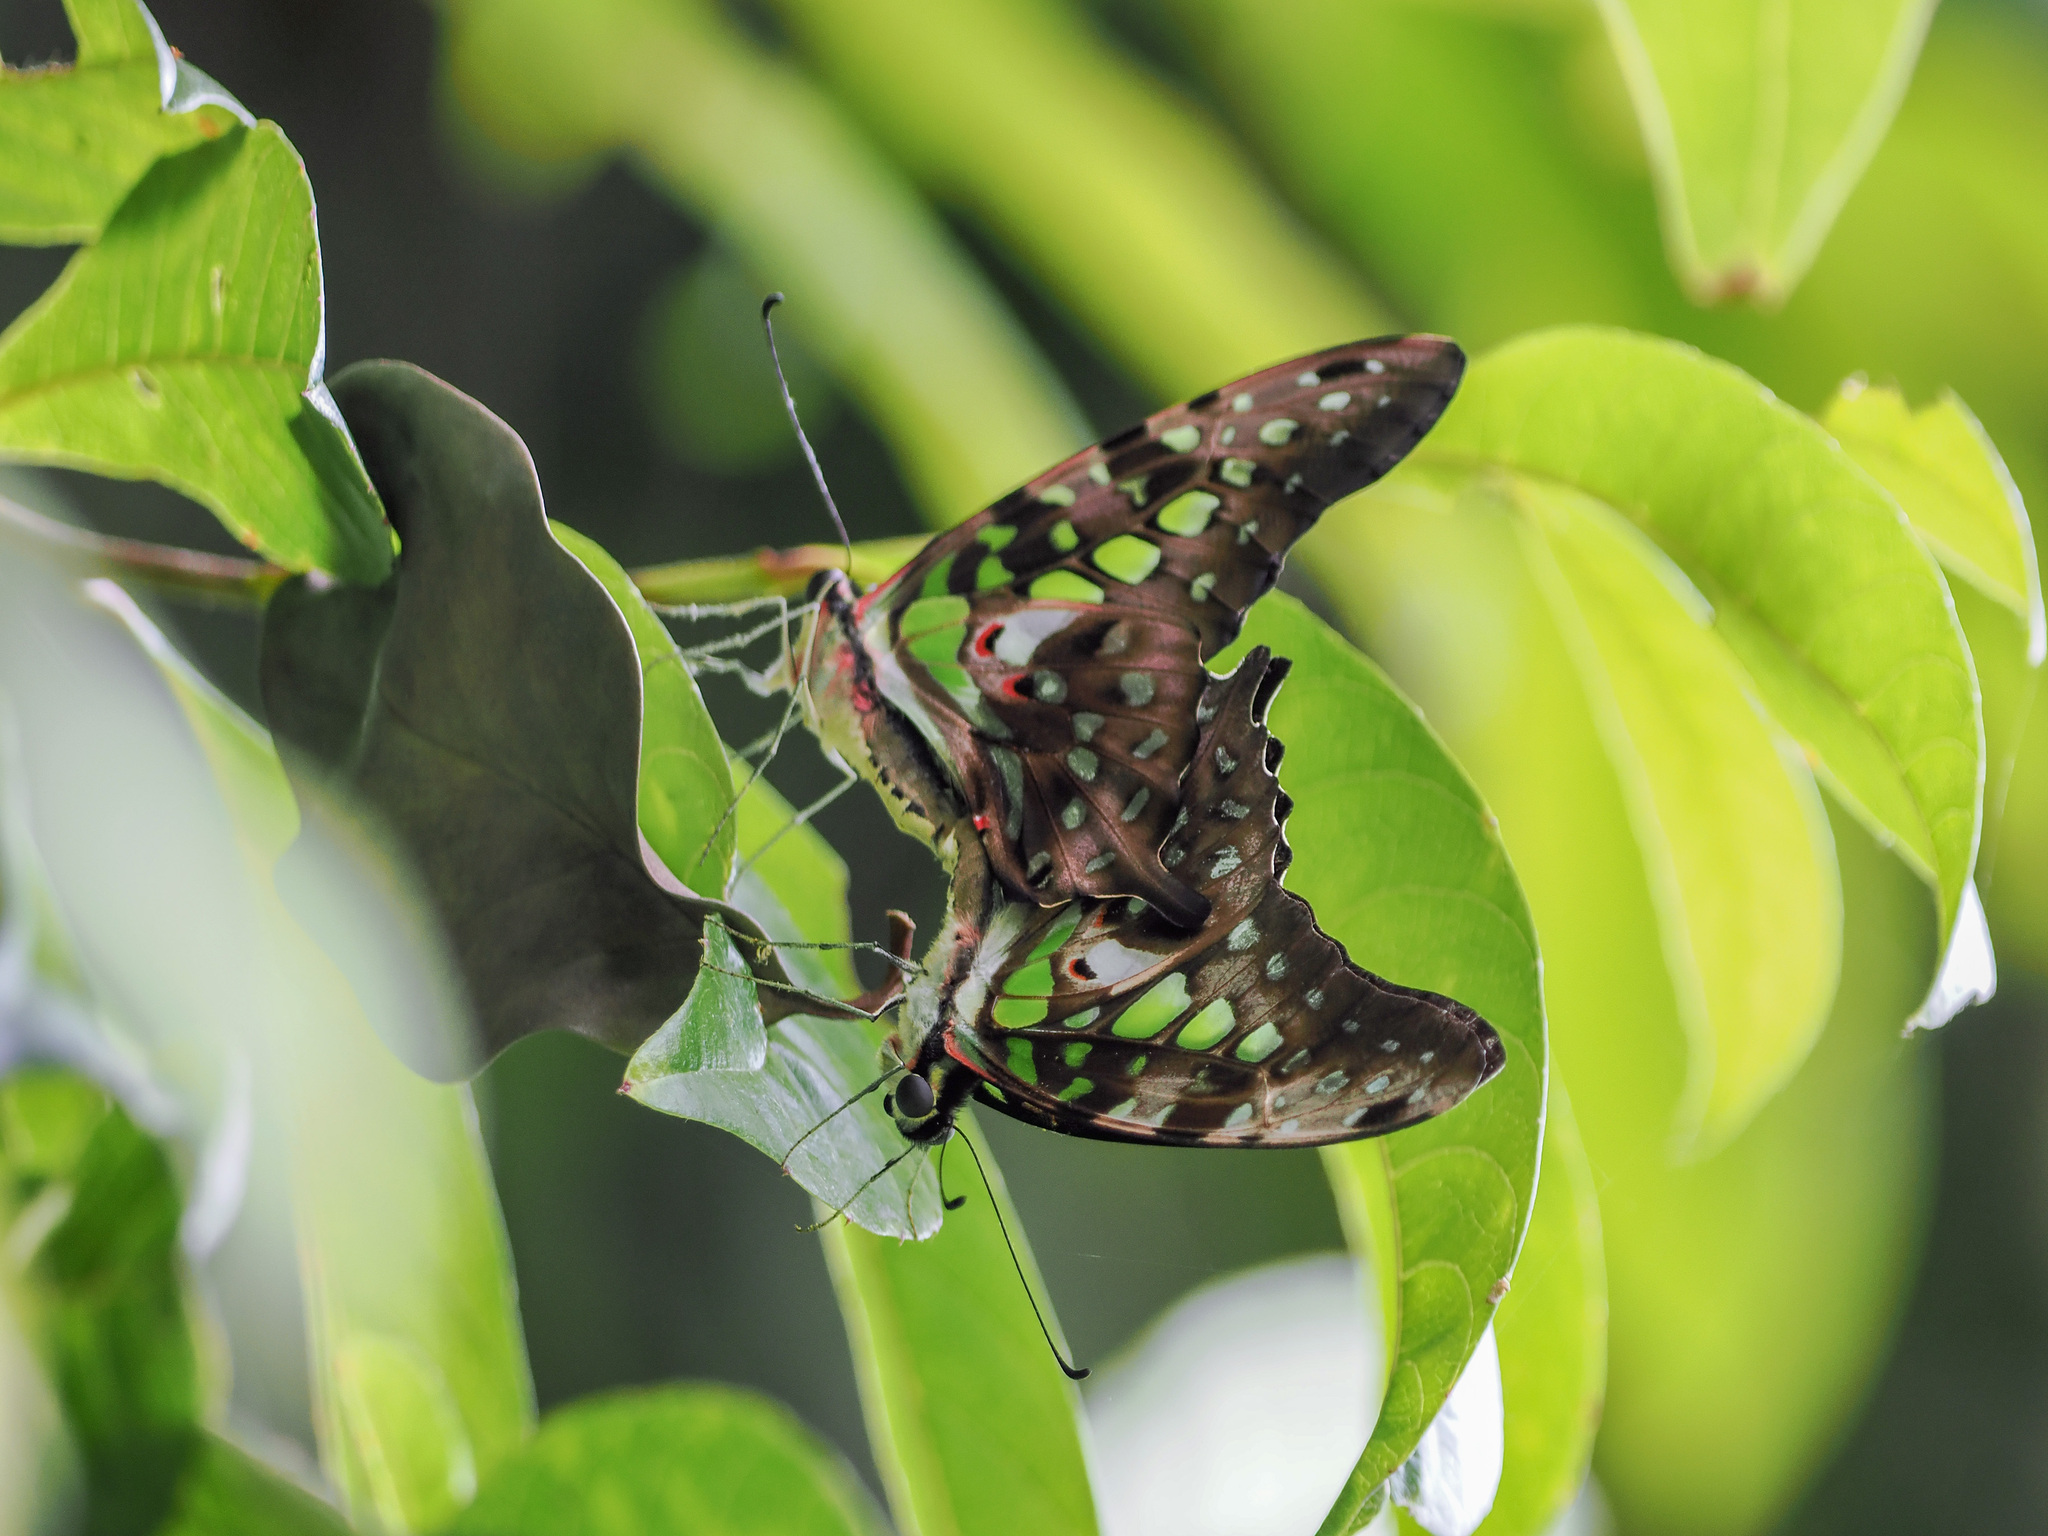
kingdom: Animalia
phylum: Arthropoda
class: Insecta
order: Lepidoptera
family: Papilionidae
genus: Graphium
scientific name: Graphium agamemnon
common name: Tailed jay
